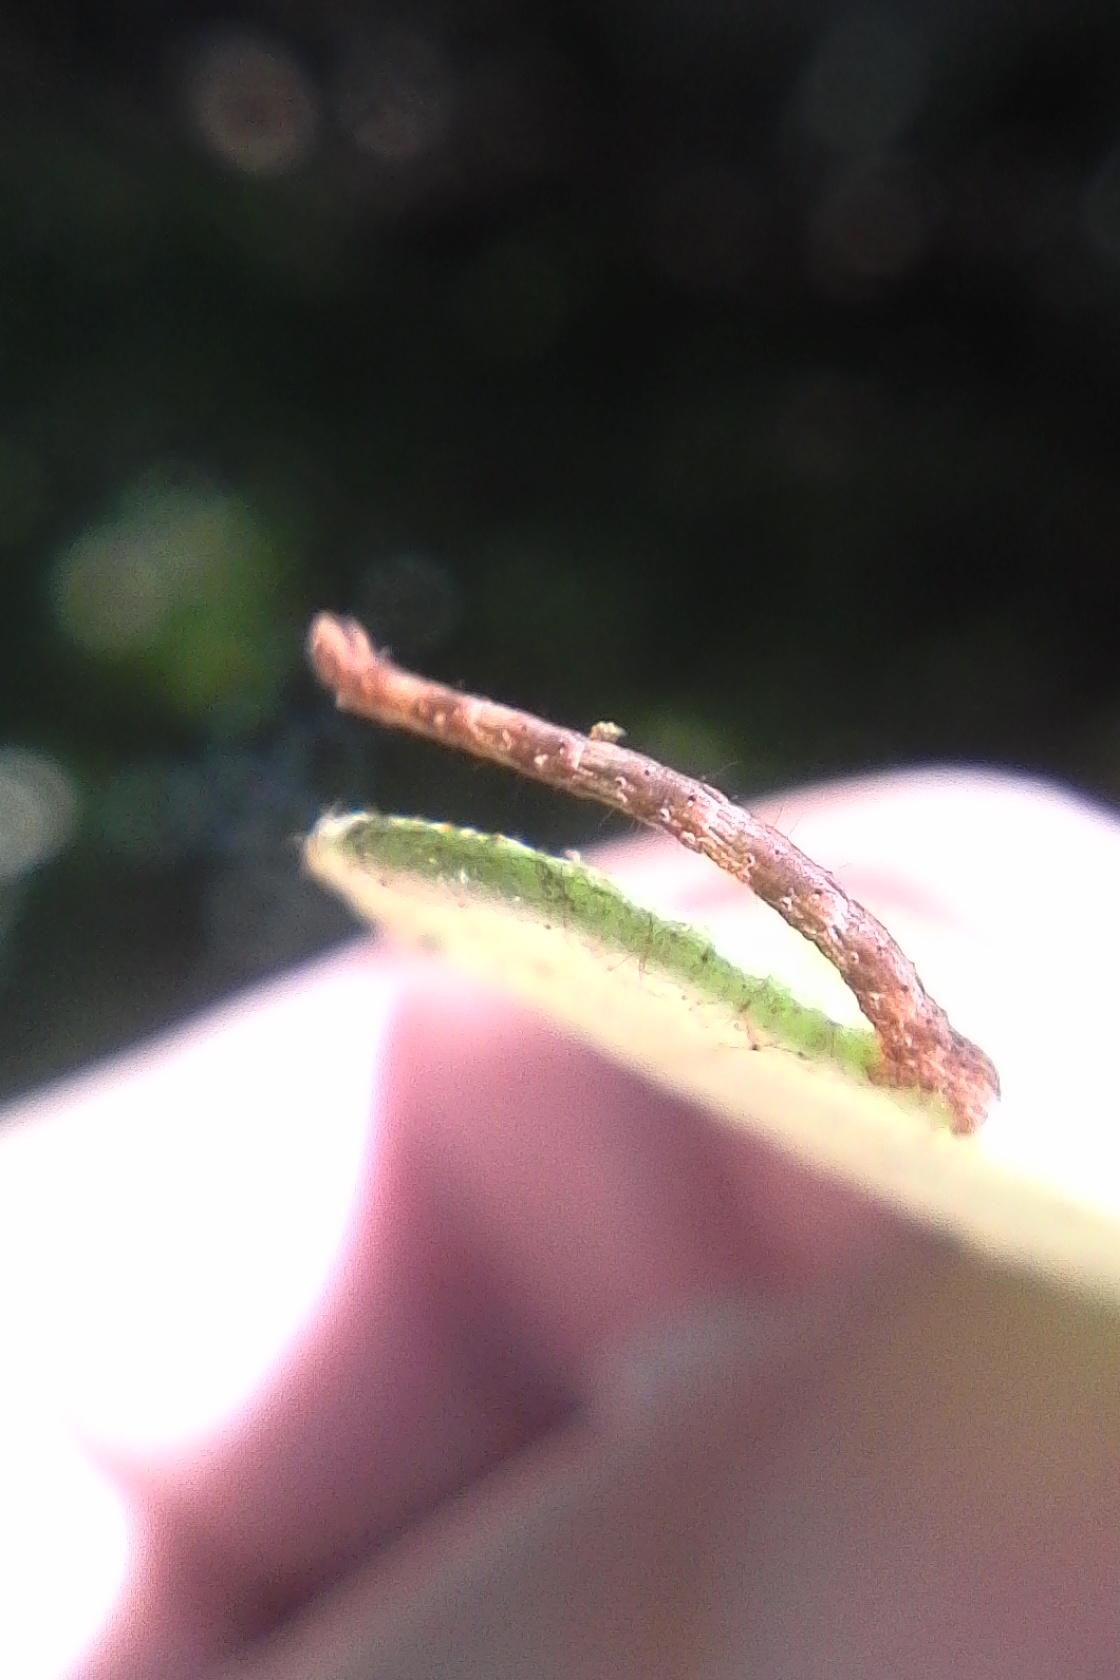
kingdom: Animalia
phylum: Arthropoda
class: Insecta
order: Lepidoptera
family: Geometridae
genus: Sarisa
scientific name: Sarisa muriferata
